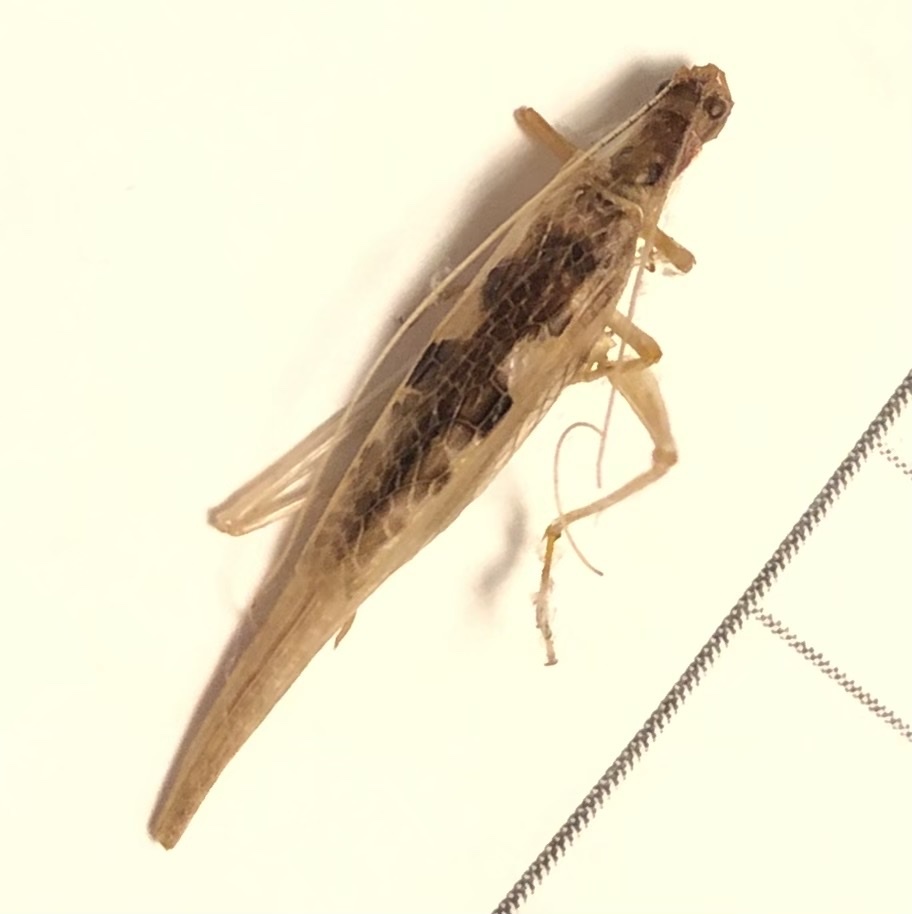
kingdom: Animalia
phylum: Arthropoda
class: Insecta
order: Orthoptera
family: Gryllidae
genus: Neoxabea
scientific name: Neoxabea bipunctata
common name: Two-spotted tree cricket
